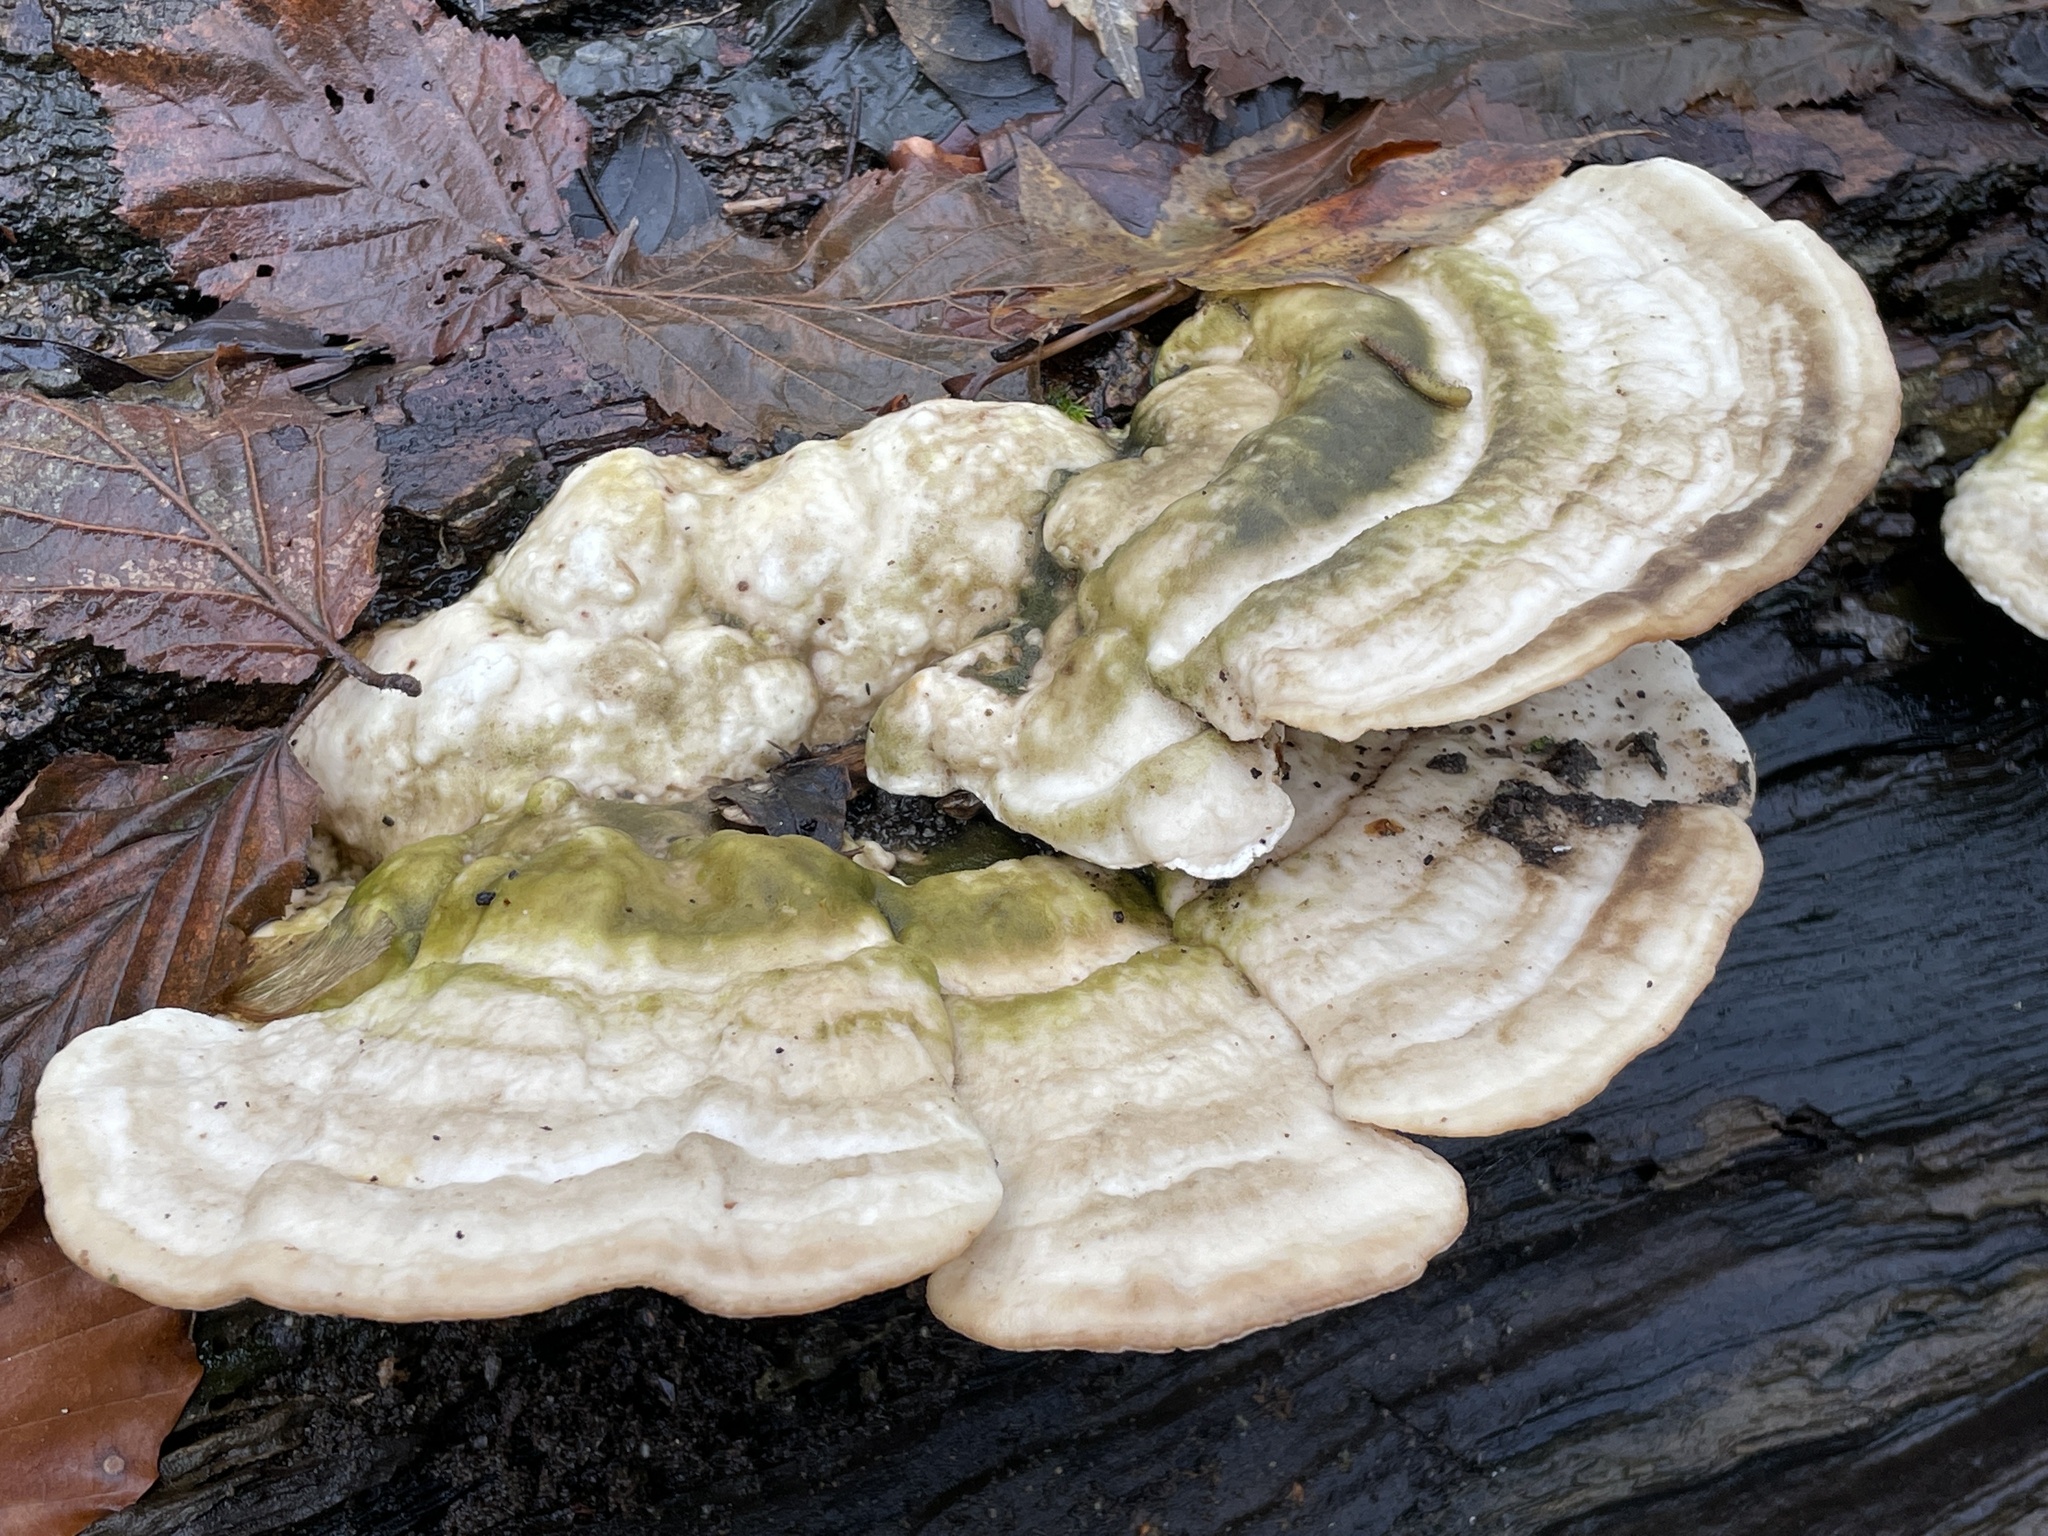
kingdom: Fungi
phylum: Basidiomycota
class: Agaricomycetes
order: Polyporales
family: Polyporaceae
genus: Trametes
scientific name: Trametes gibbosa
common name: Lumpy bracket
